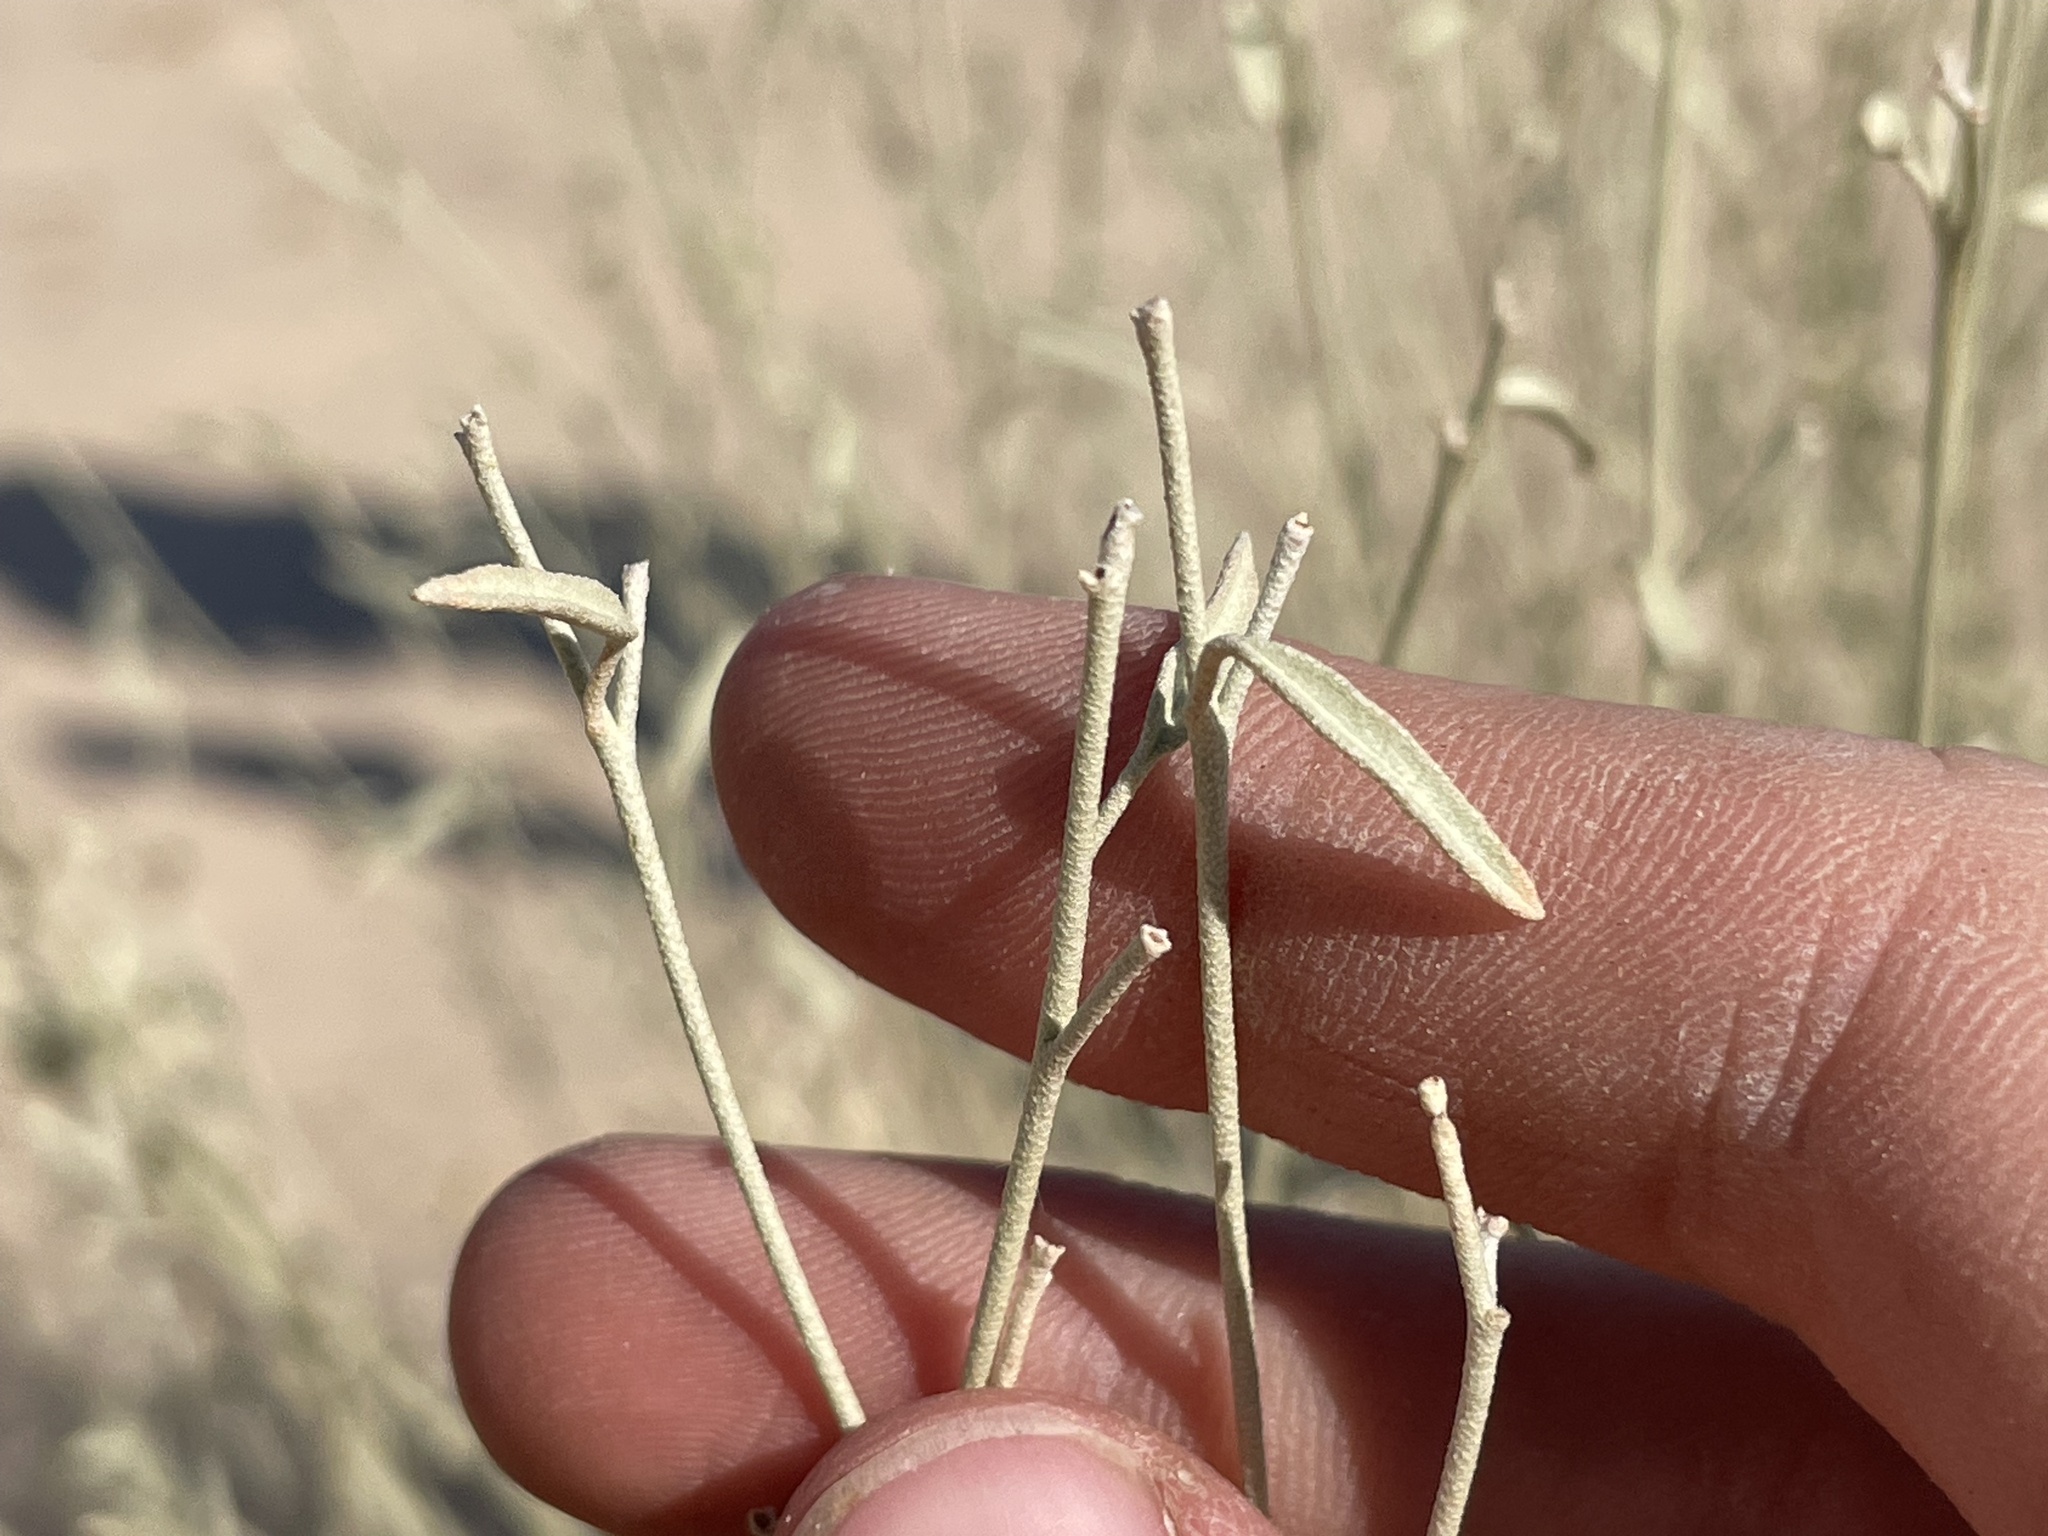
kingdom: Plantae
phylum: Tracheophyta
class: Magnoliopsida
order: Malpighiales
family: Euphorbiaceae
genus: Croton
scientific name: Croton californicus
